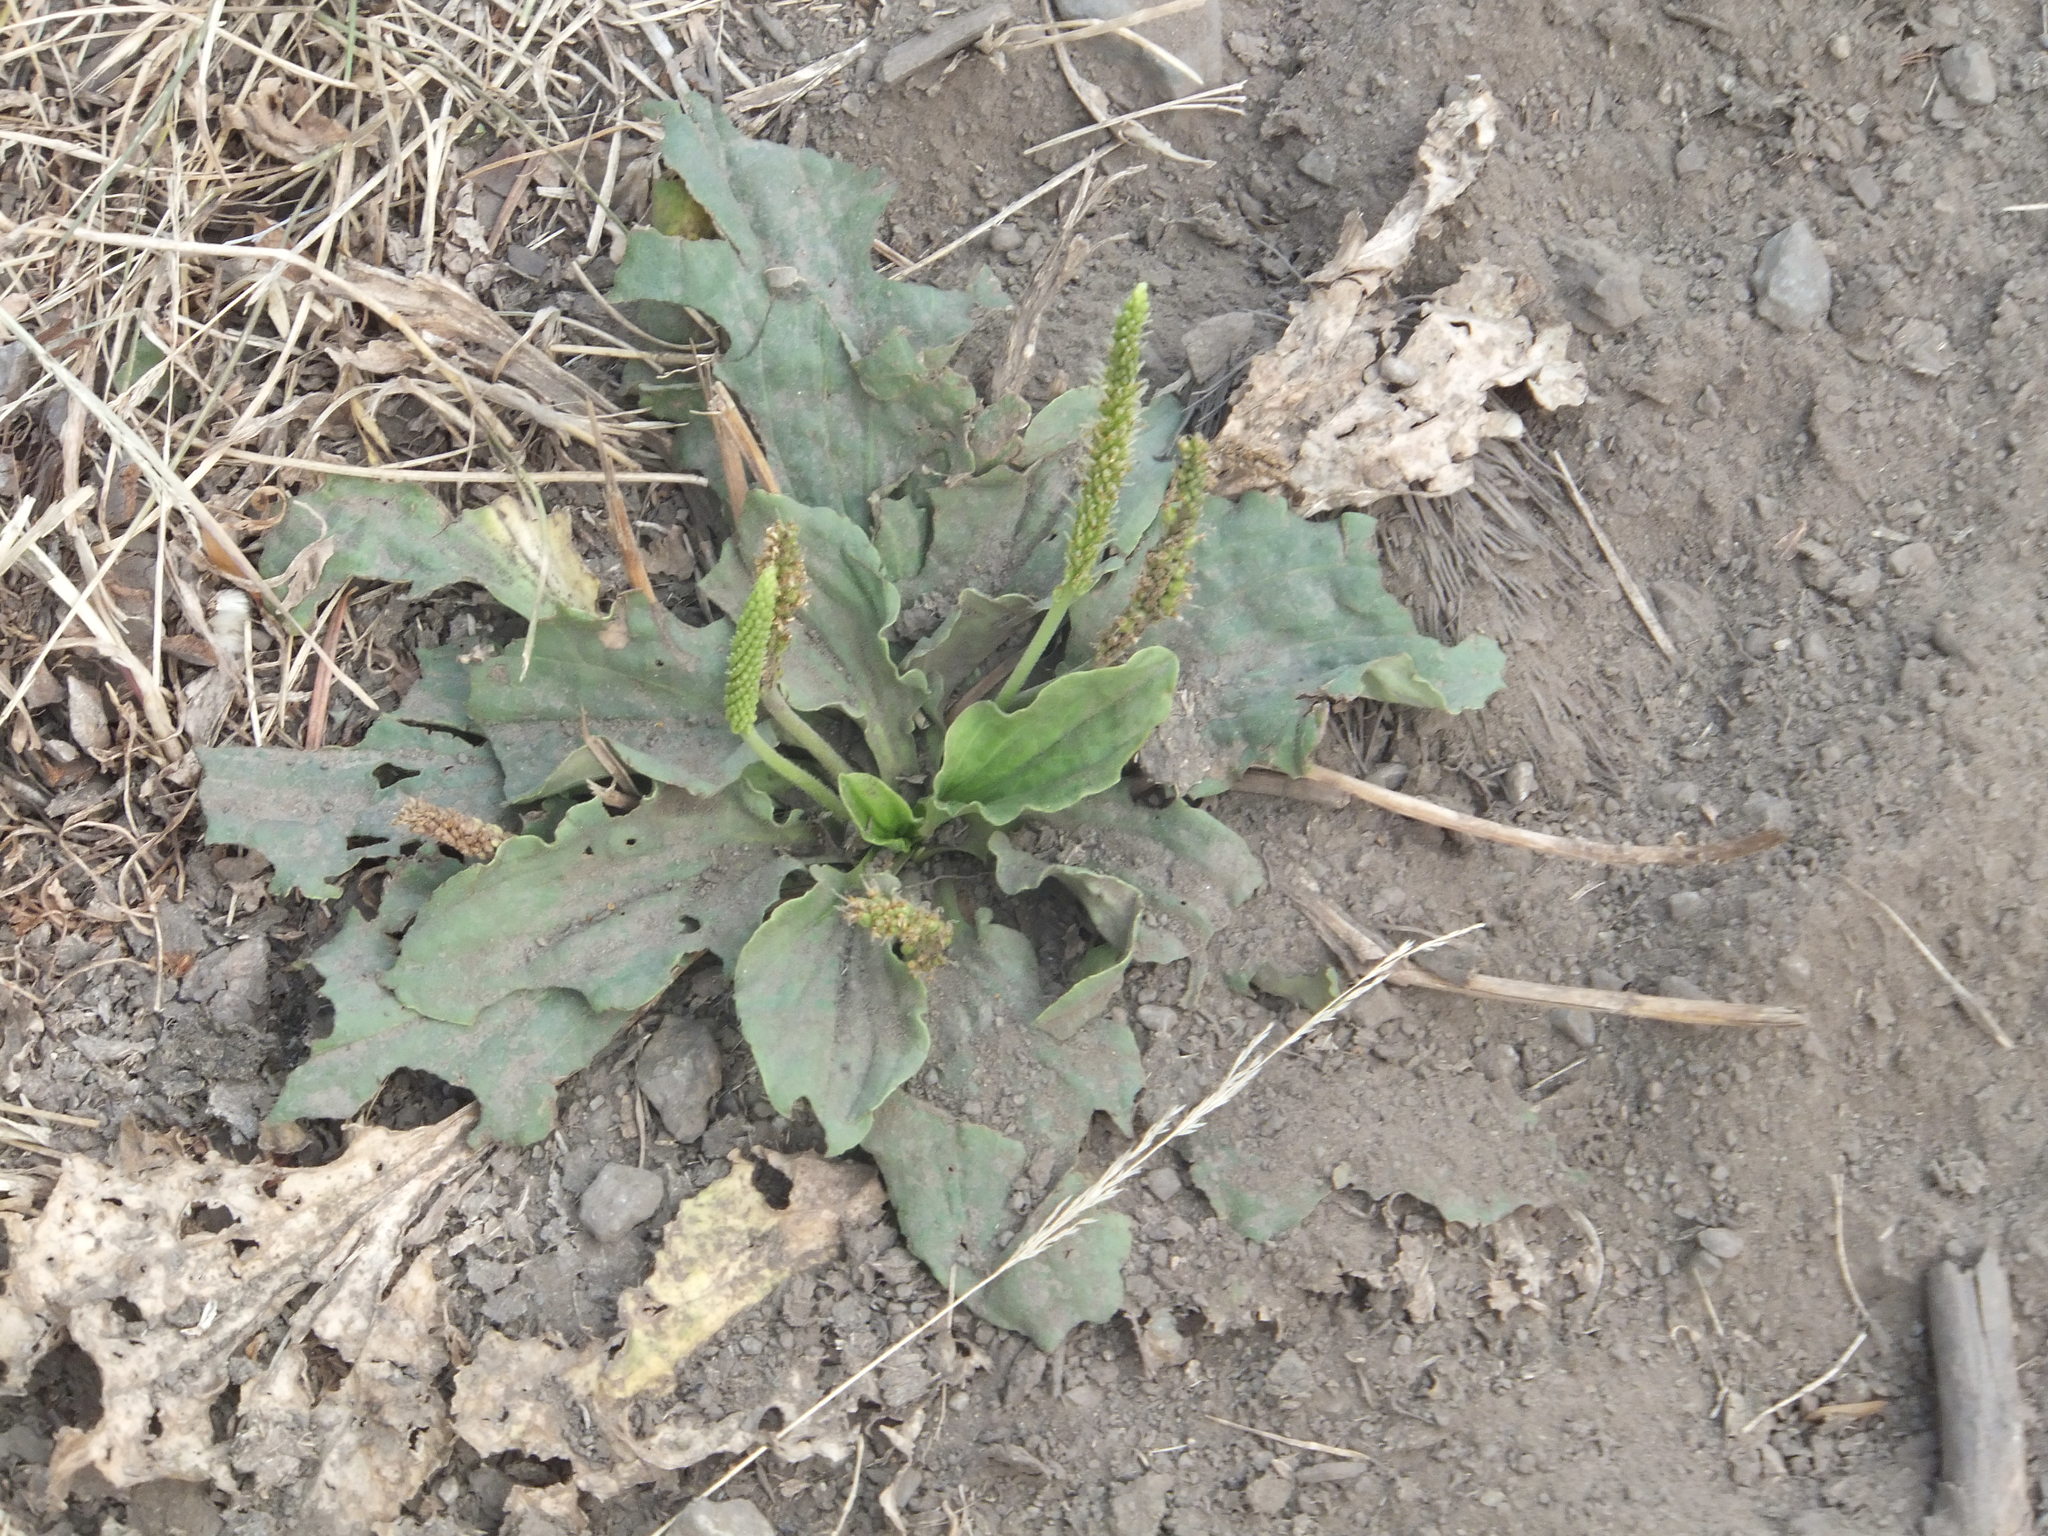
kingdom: Plantae
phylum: Tracheophyta
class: Magnoliopsida
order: Lamiales
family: Plantaginaceae
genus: Plantago
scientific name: Plantago major
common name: Common plantain
